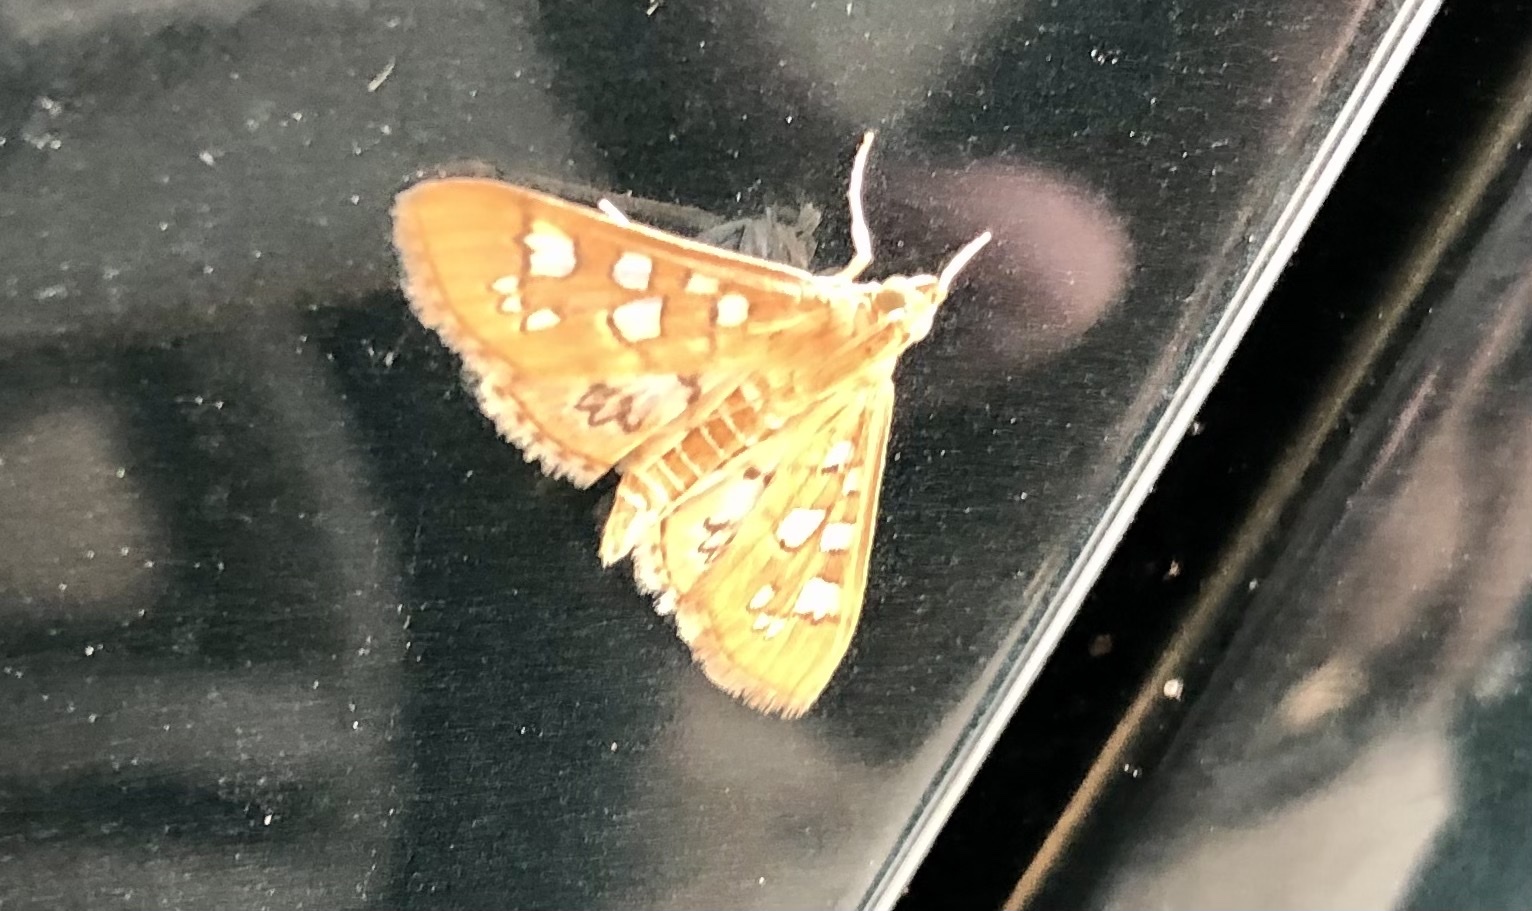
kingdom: Animalia
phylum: Arthropoda
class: Insecta
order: Lepidoptera
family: Crambidae
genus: Samea
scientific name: Samea baccatalis
